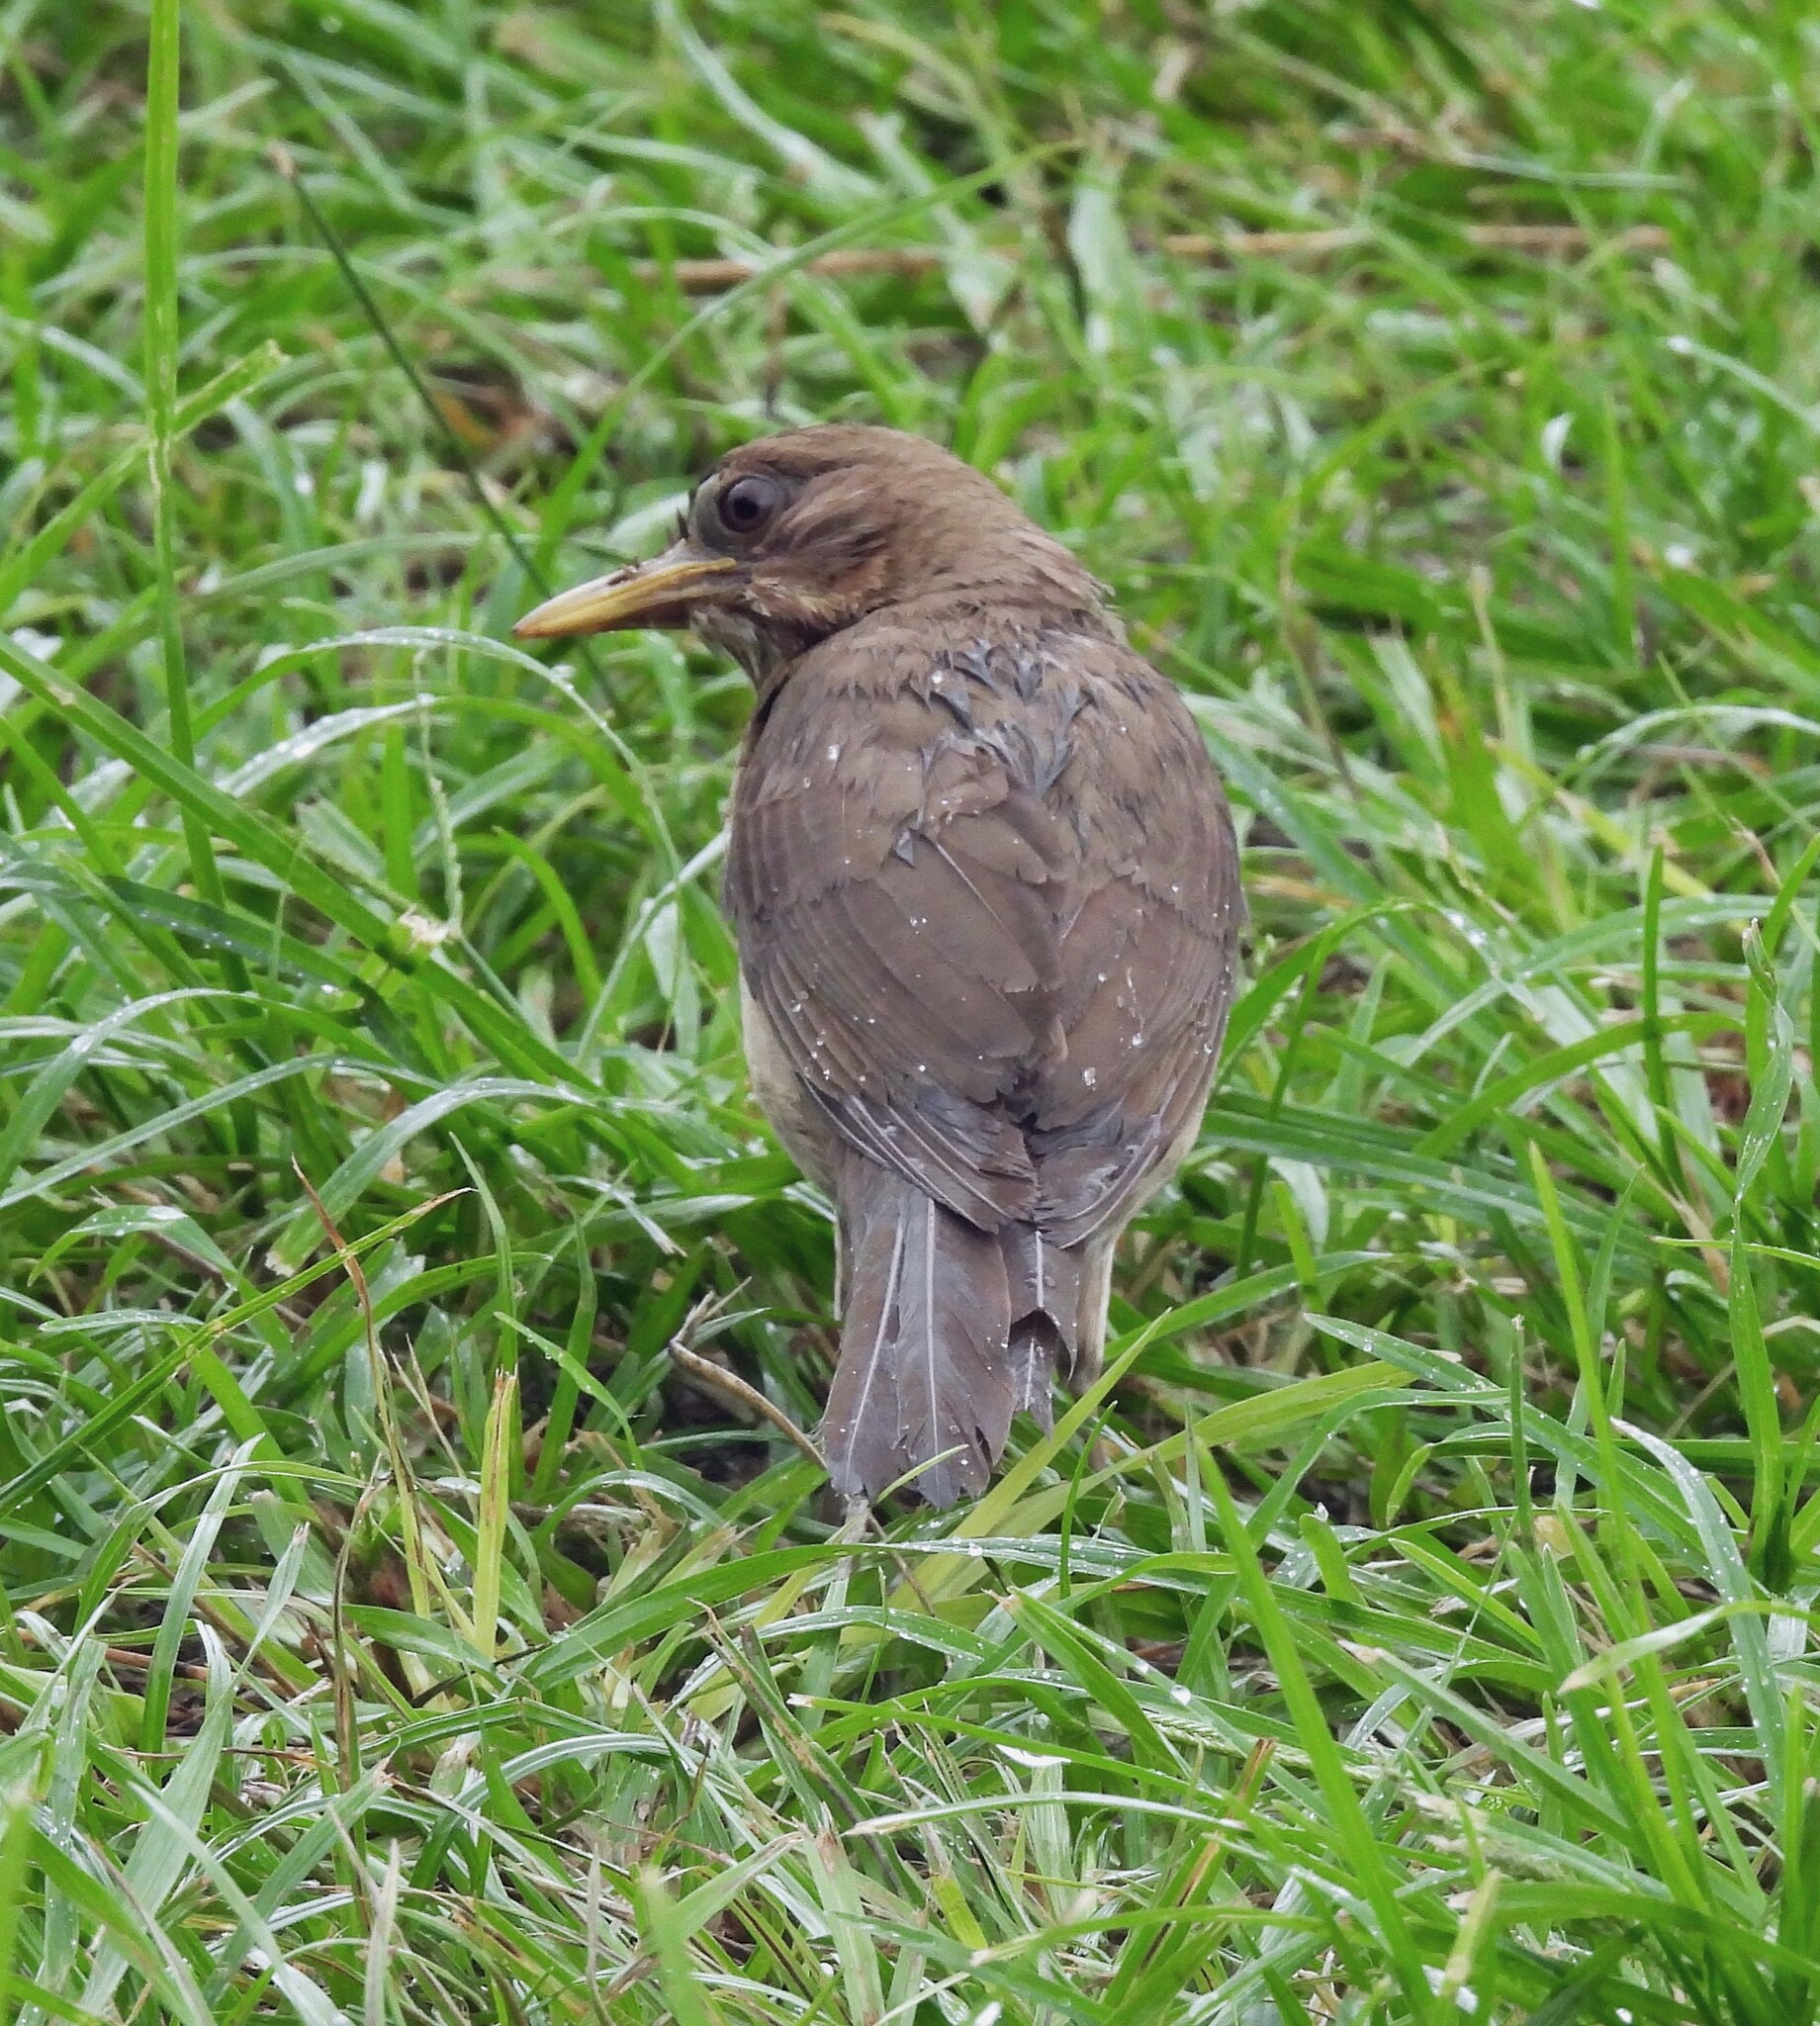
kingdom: Animalia
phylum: Chordata
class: Aves
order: Passeriformes
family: Turdidae
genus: Turdus
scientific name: Turdus amaurochalinus
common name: Creamy-bellied thrush
